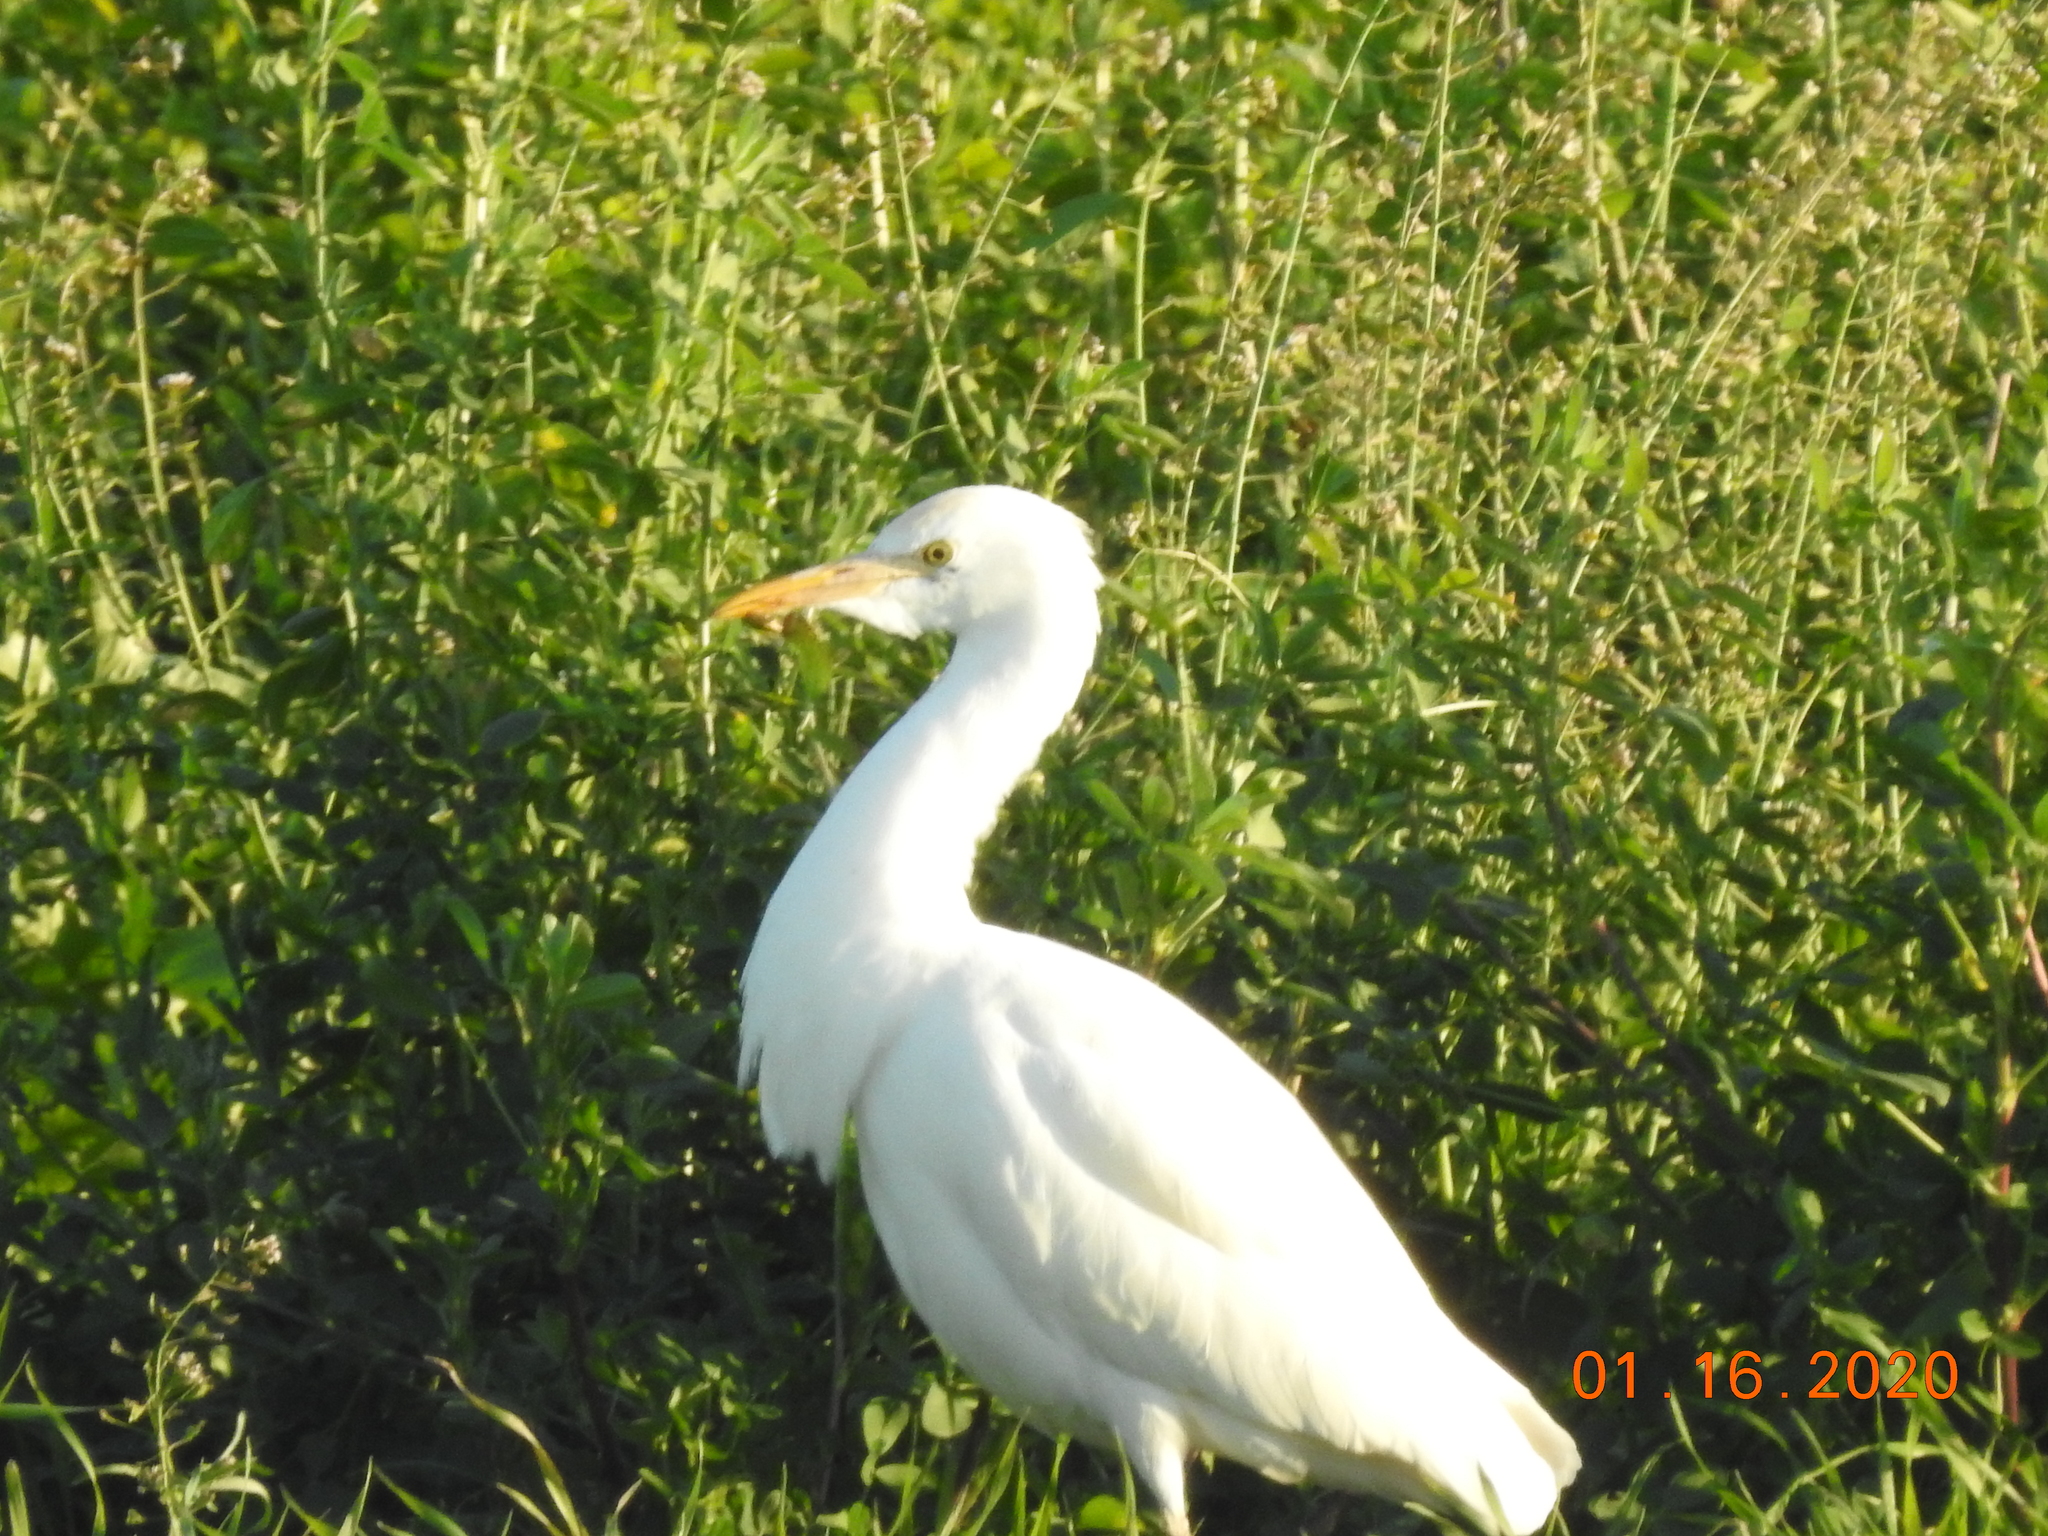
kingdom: Animalia
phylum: Chordata
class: Aves
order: Pelecaniformes
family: Ardeidae
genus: Bubulcus
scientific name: Bubulcus ibis
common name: Cattle egret
